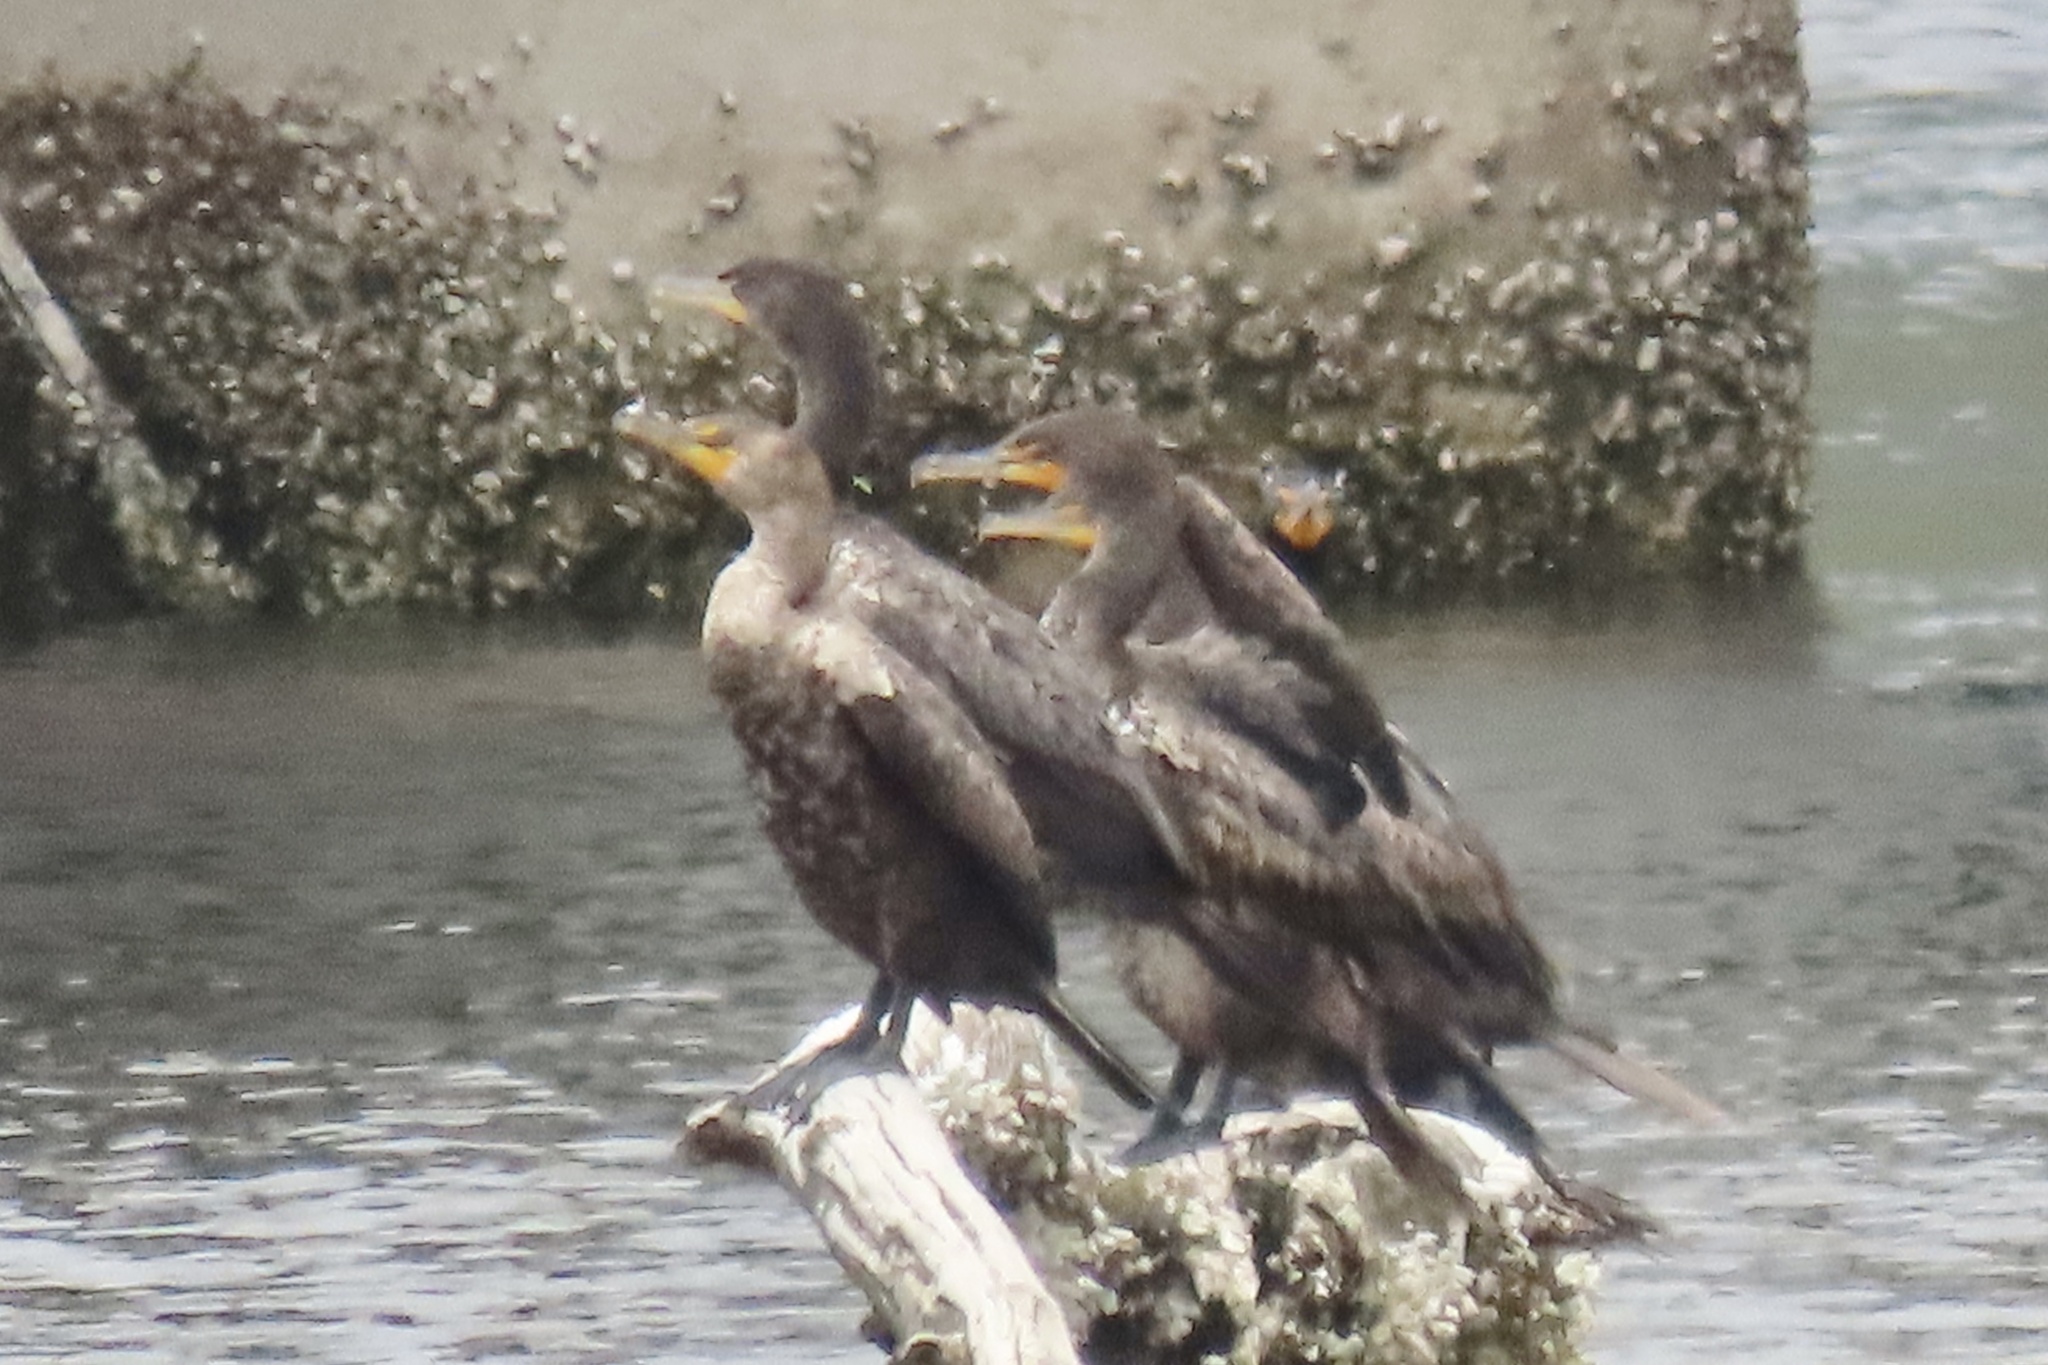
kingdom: Animalia
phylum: Chordata
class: Aves
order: Suliformes
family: Phalacrocoracidae
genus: Phalacrocorax
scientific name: Phalacrocorax auritus
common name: Double-crested cormorant
